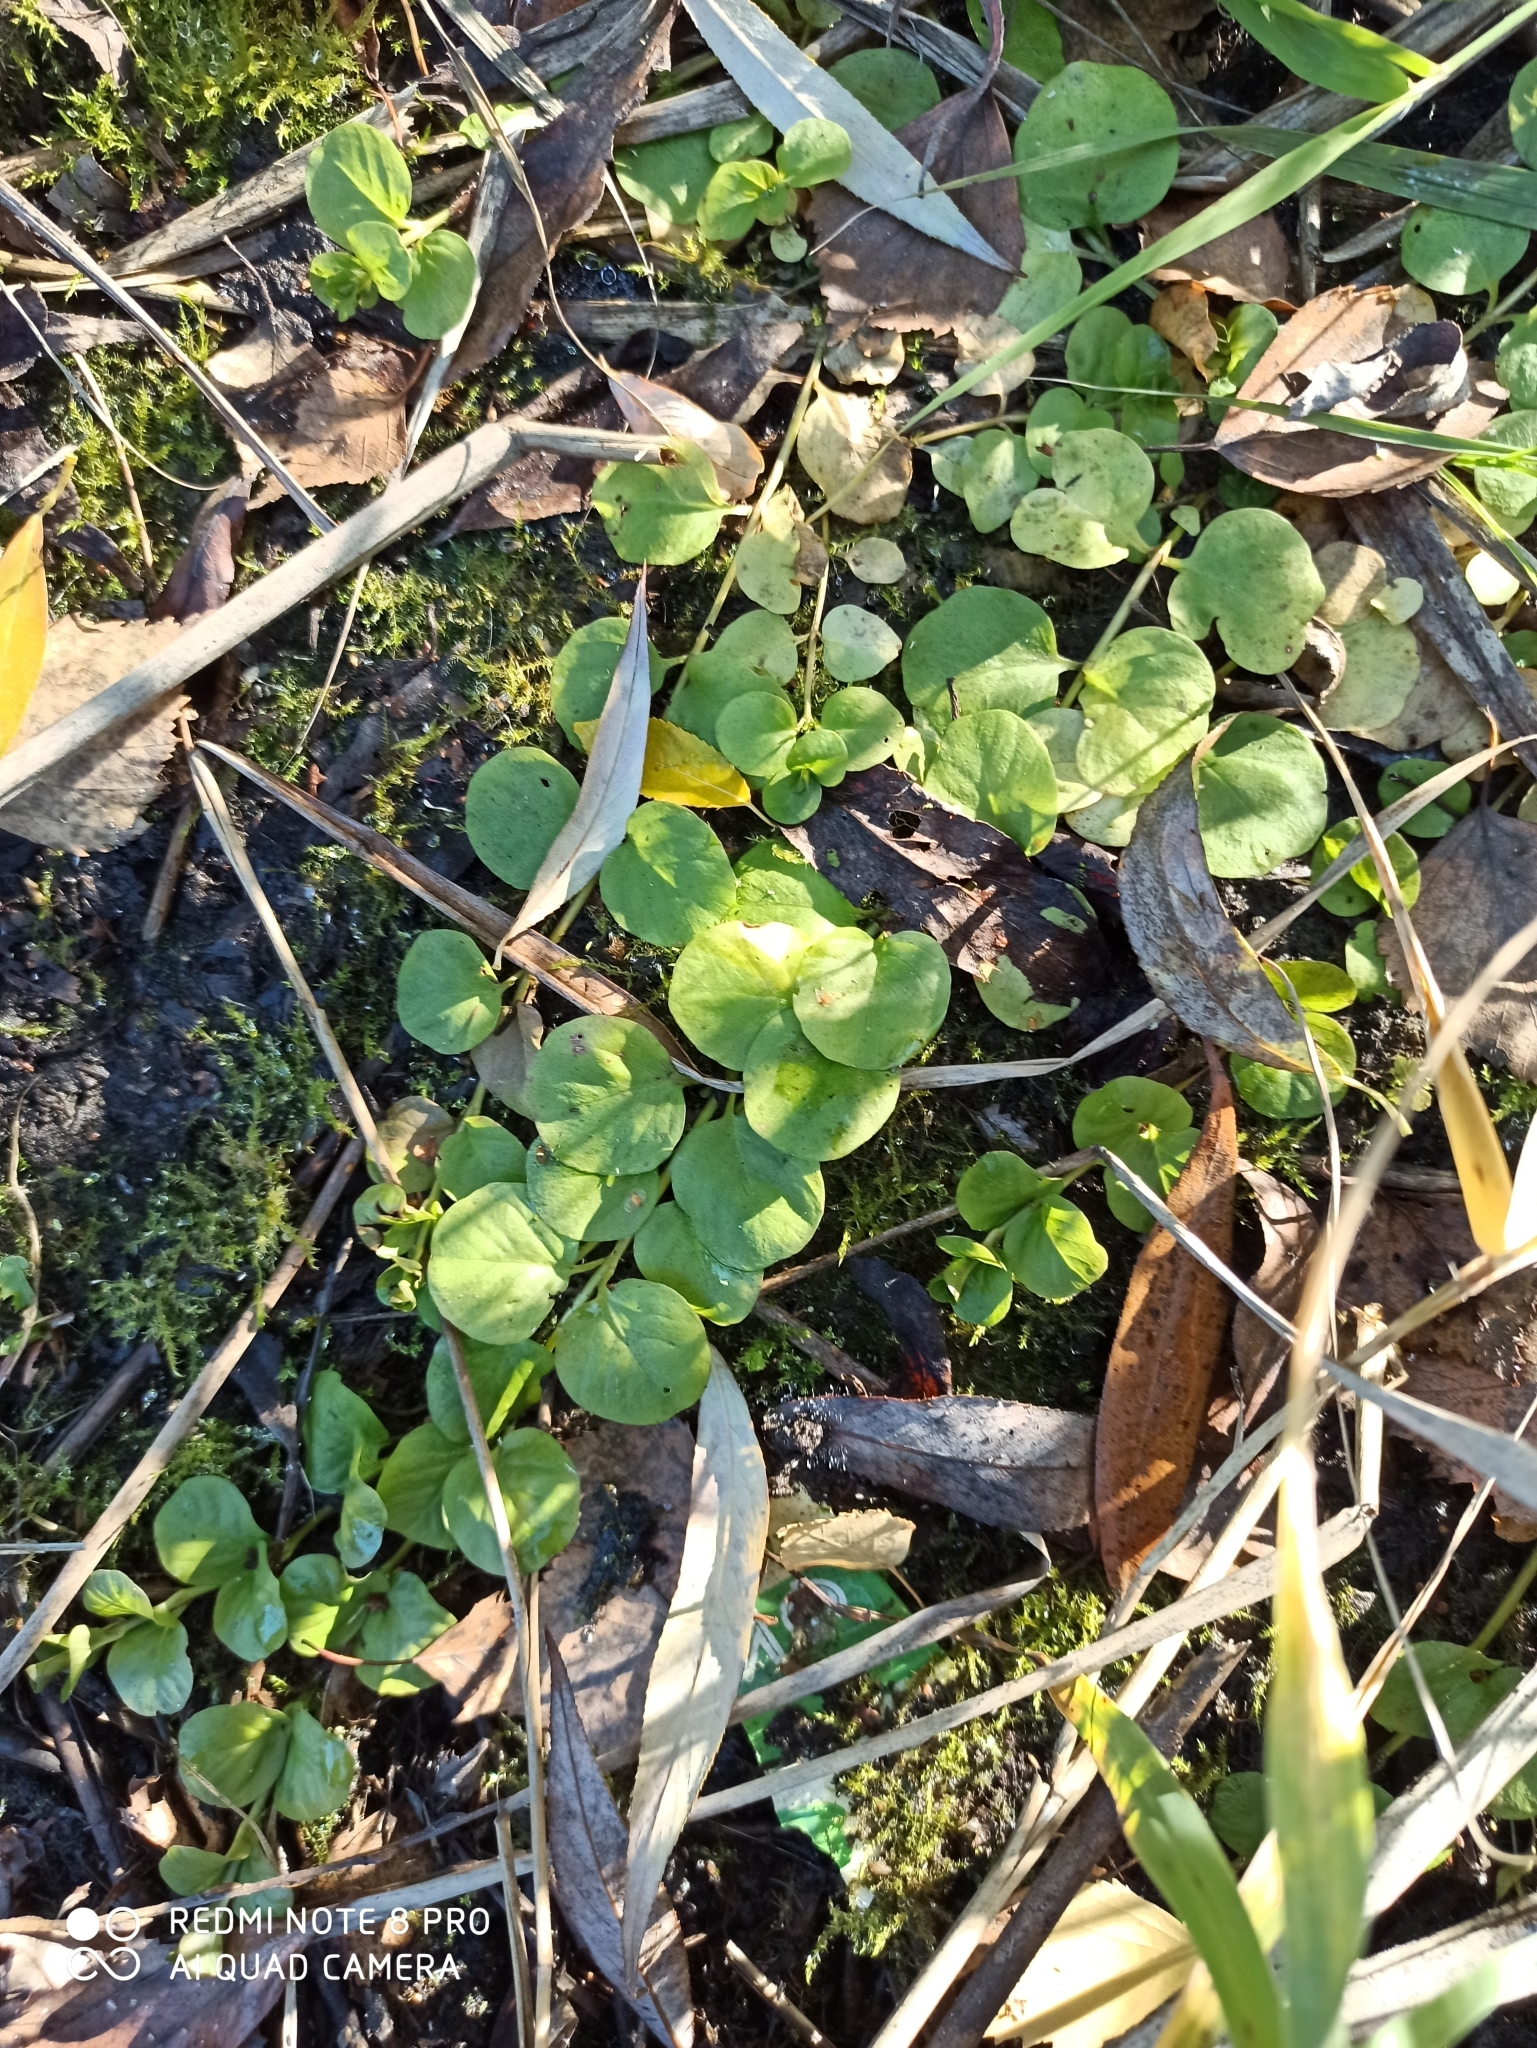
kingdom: Plantae
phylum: Tracheophyta
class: Magnoliopsida
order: Ericales
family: Primulaceae
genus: Lysimachia
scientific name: Lysimachia nummularia
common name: Moneywort
